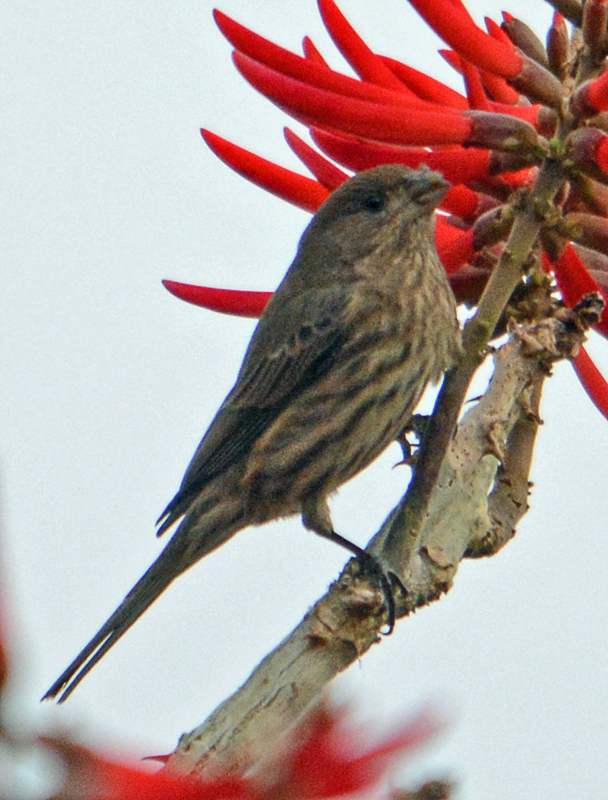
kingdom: Animalia
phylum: Chordata
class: Aves
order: Passeriformes
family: Fringillidae
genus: Haemorhous
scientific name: Haemorhous mexicanus
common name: House finch
